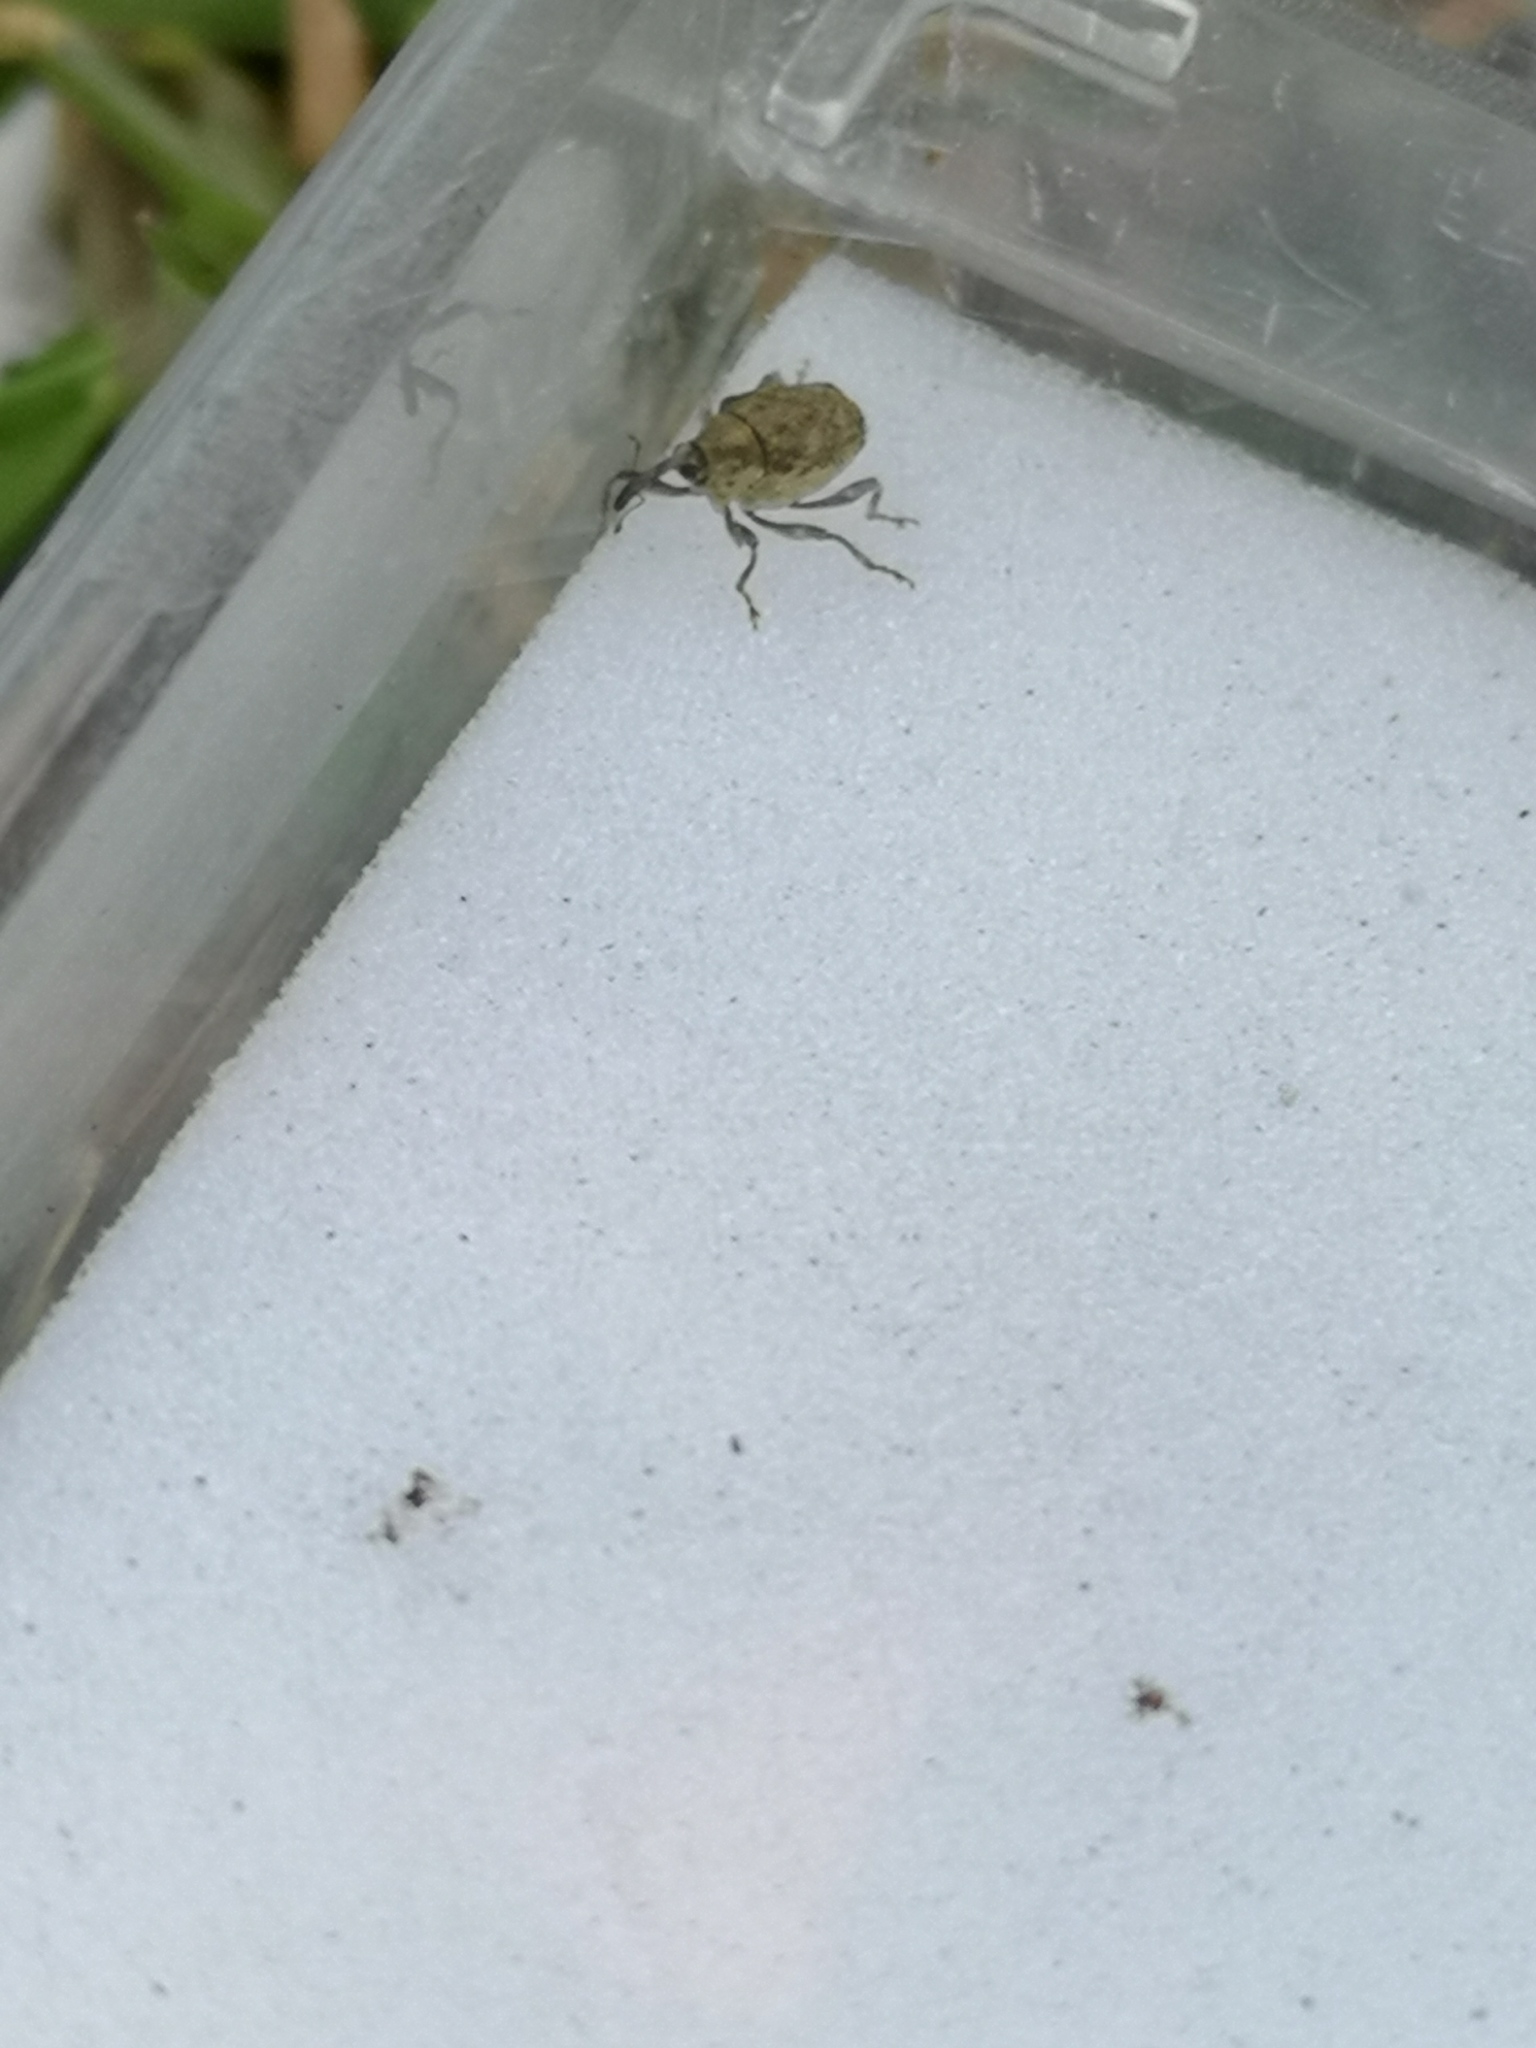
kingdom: Animalia
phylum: Arthropoda
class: Insecta
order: Coleoptera
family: Curculionidae
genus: Parethelcus
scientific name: Parethelcus pollinarius
